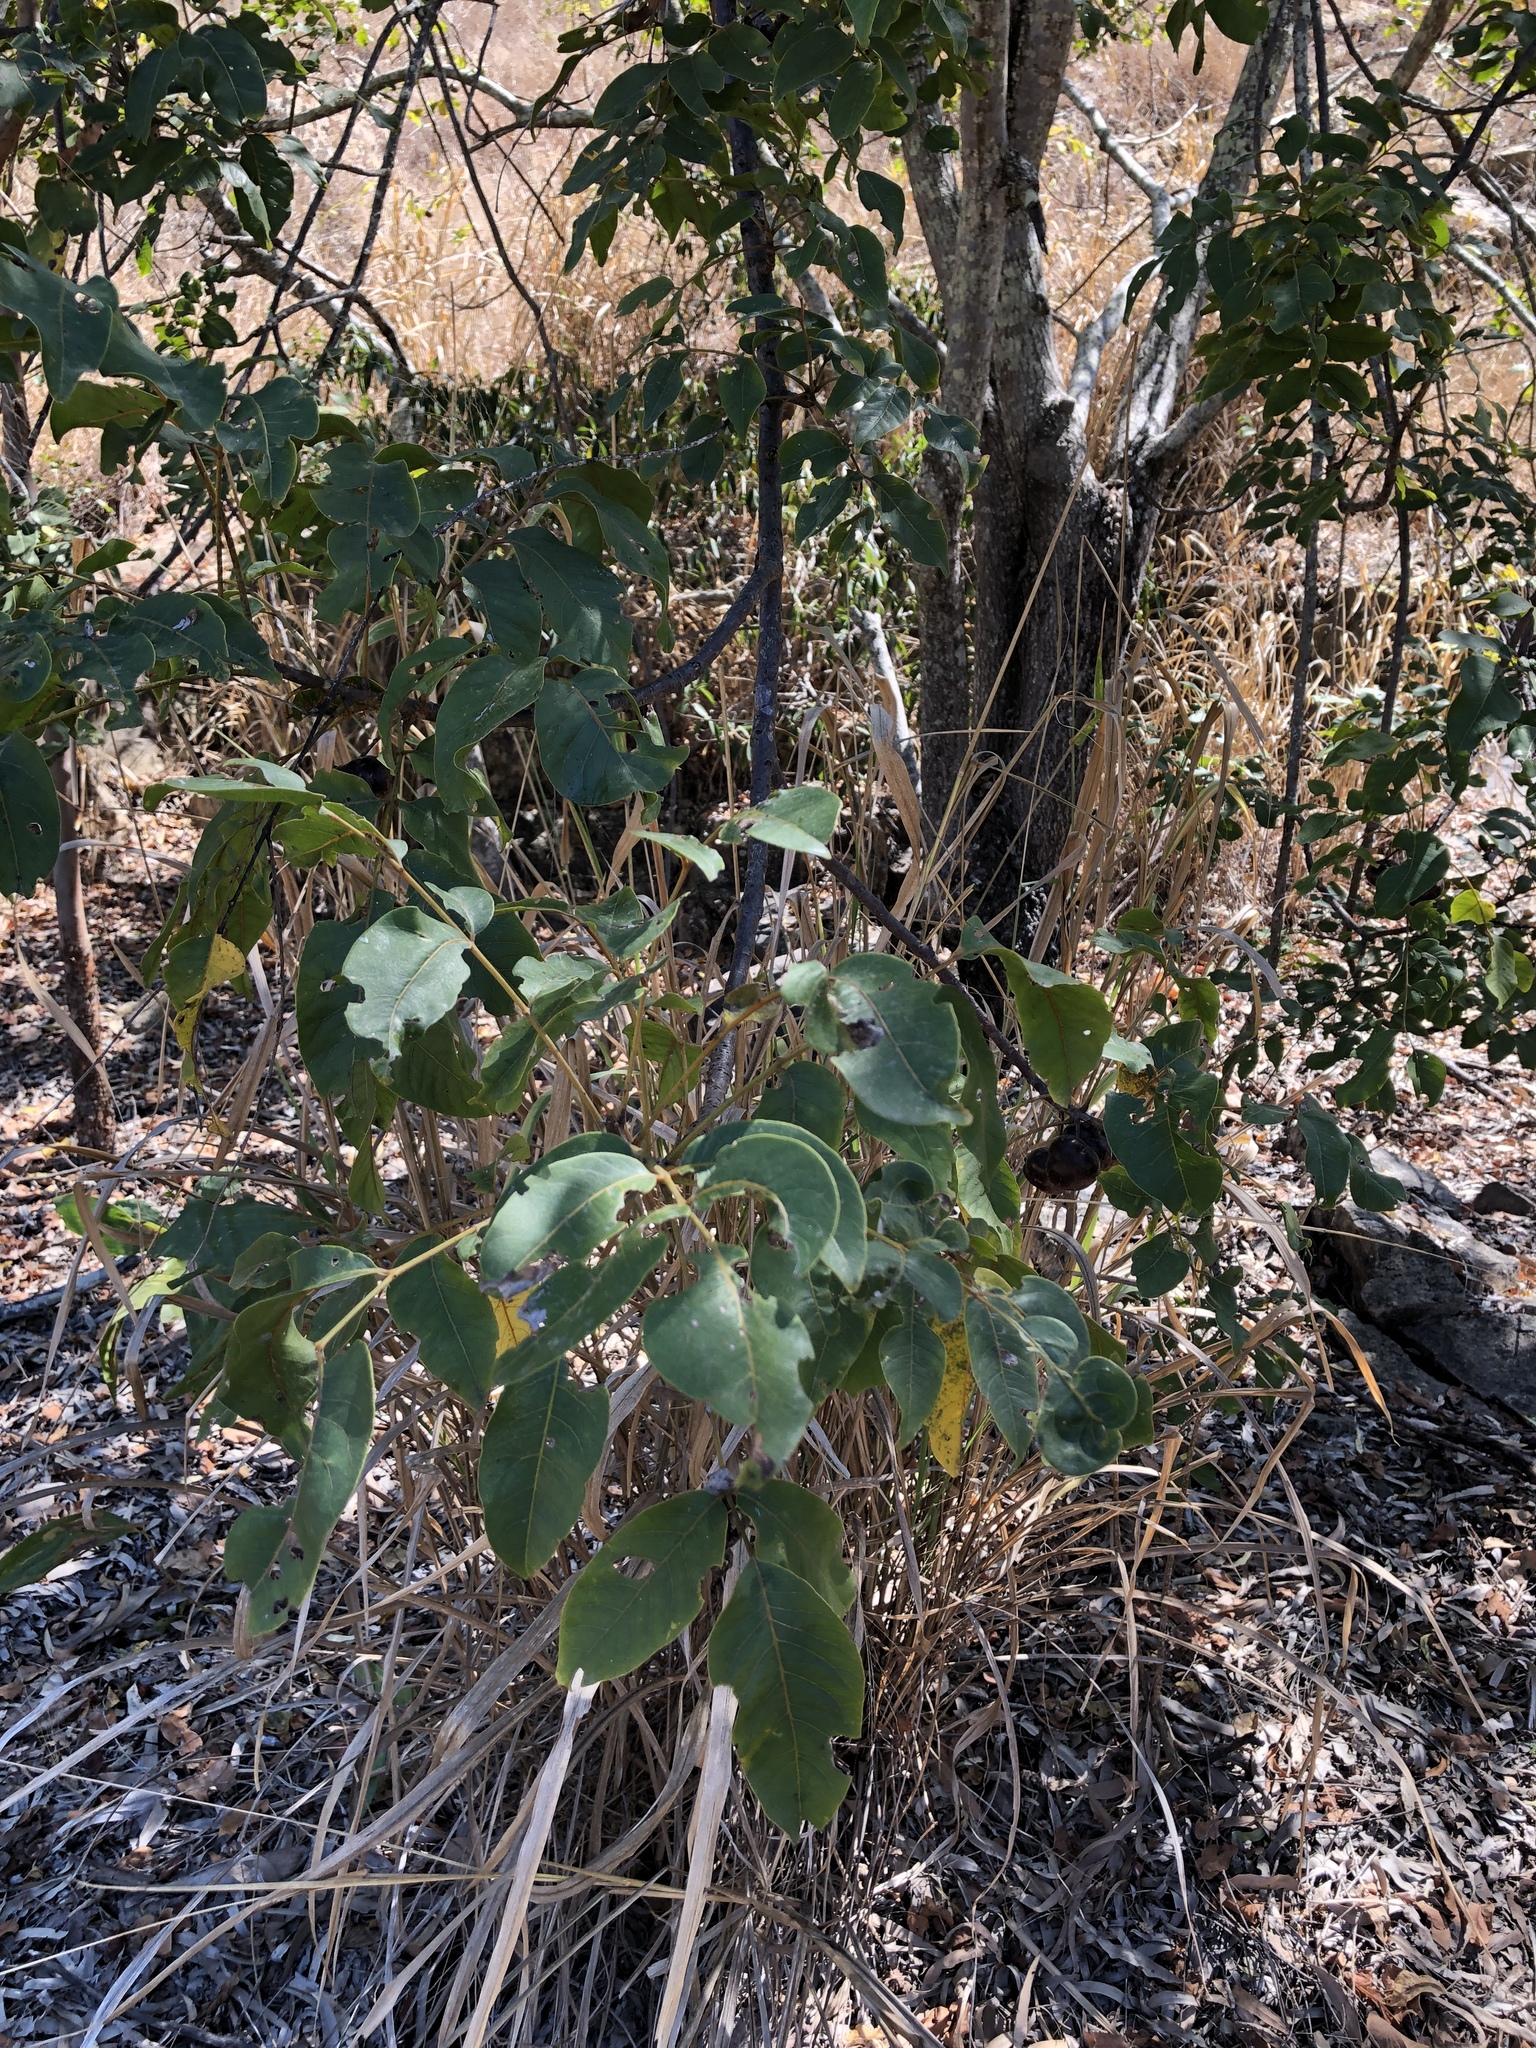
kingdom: Plantae
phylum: Tracheophyta
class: Magnoliopsida
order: Sapindales
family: Anacardiaceae
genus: Pleiogynium
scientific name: Pleiogynium timoriense
